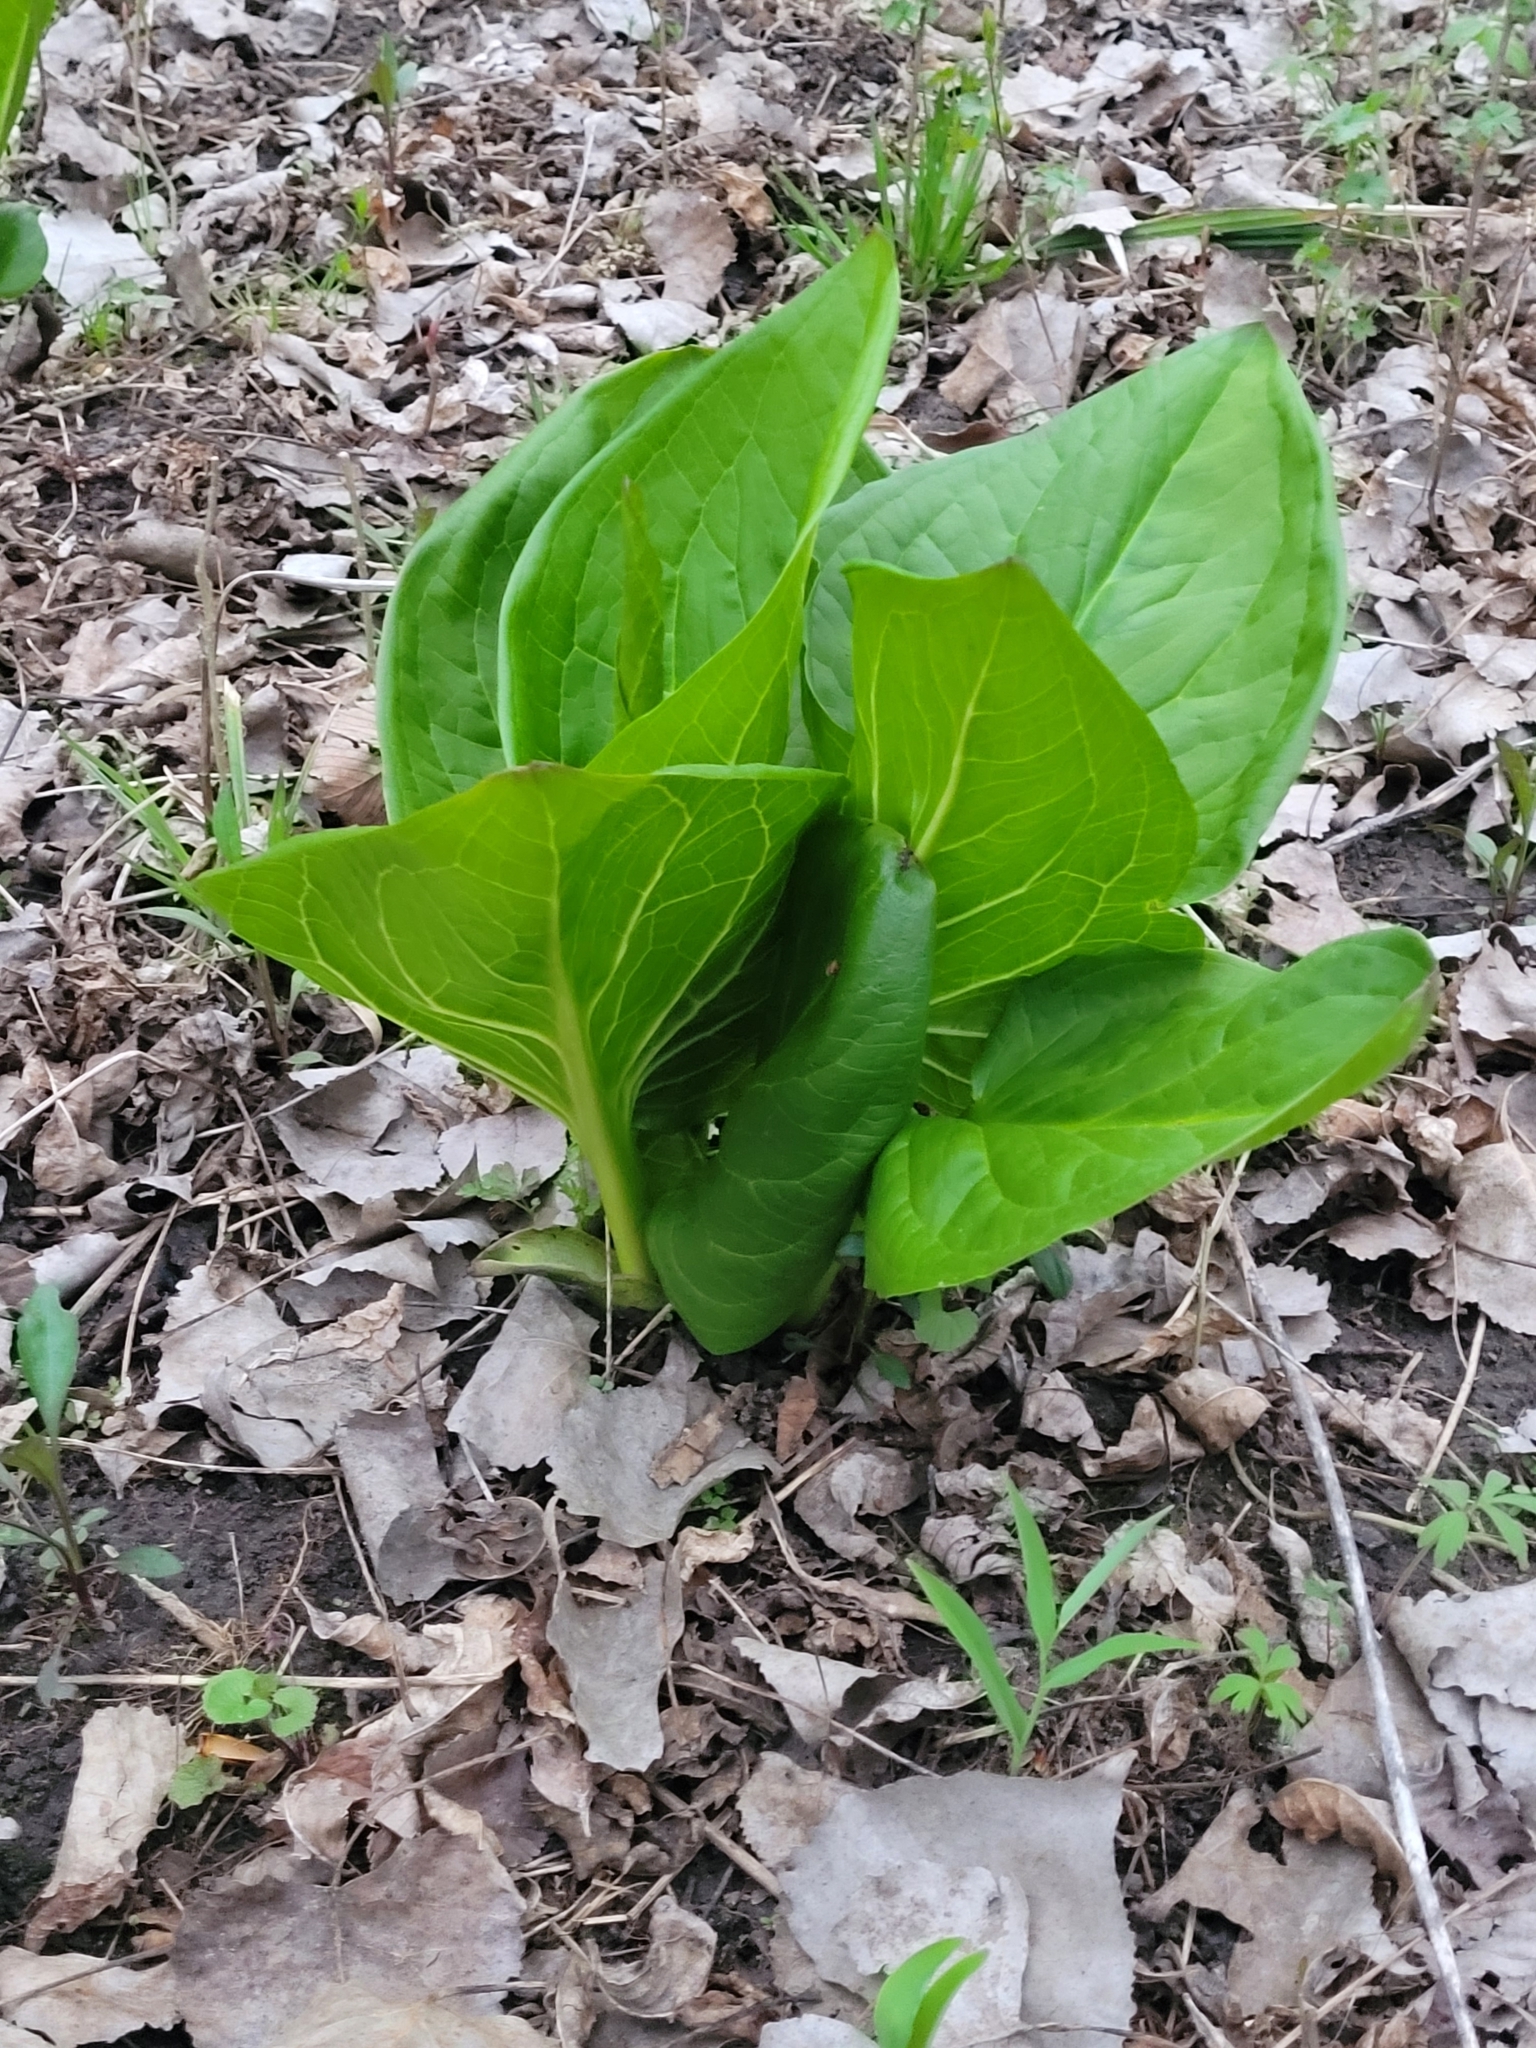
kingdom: Plantae
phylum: Tracheophyta
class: Liliopsida
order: Alismatales
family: Araceae
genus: Symplocarpus
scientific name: Symplocarpus foetidus
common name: Eastern skunk cabbage
